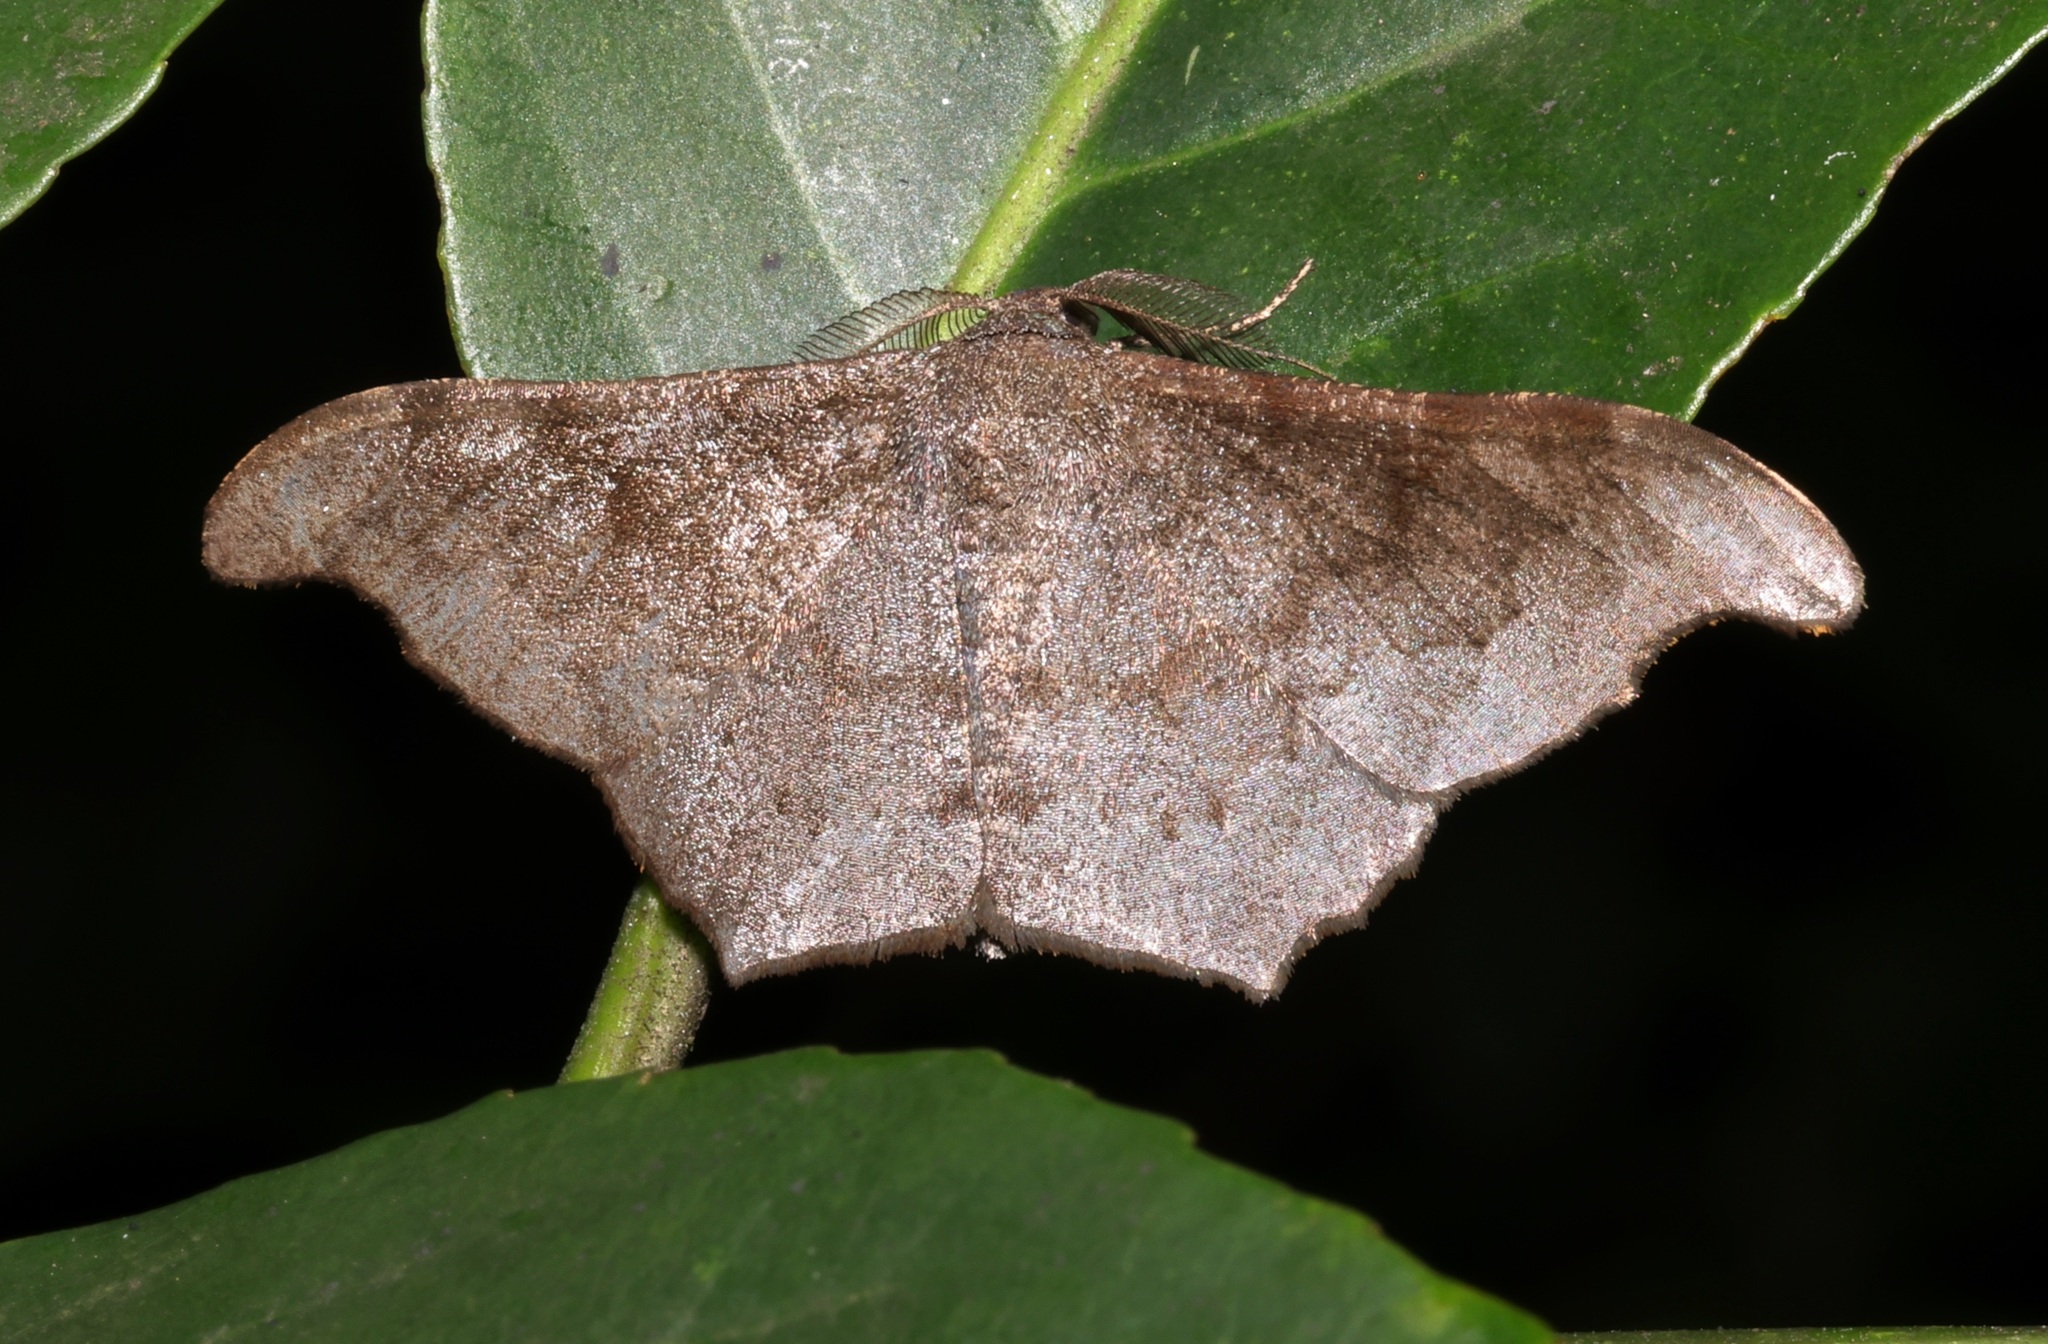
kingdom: Animalia
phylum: Arthropoda
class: Insecta
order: Lepidoptera
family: Geometridae
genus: Hyposidra
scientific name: Hyposidra talaca
